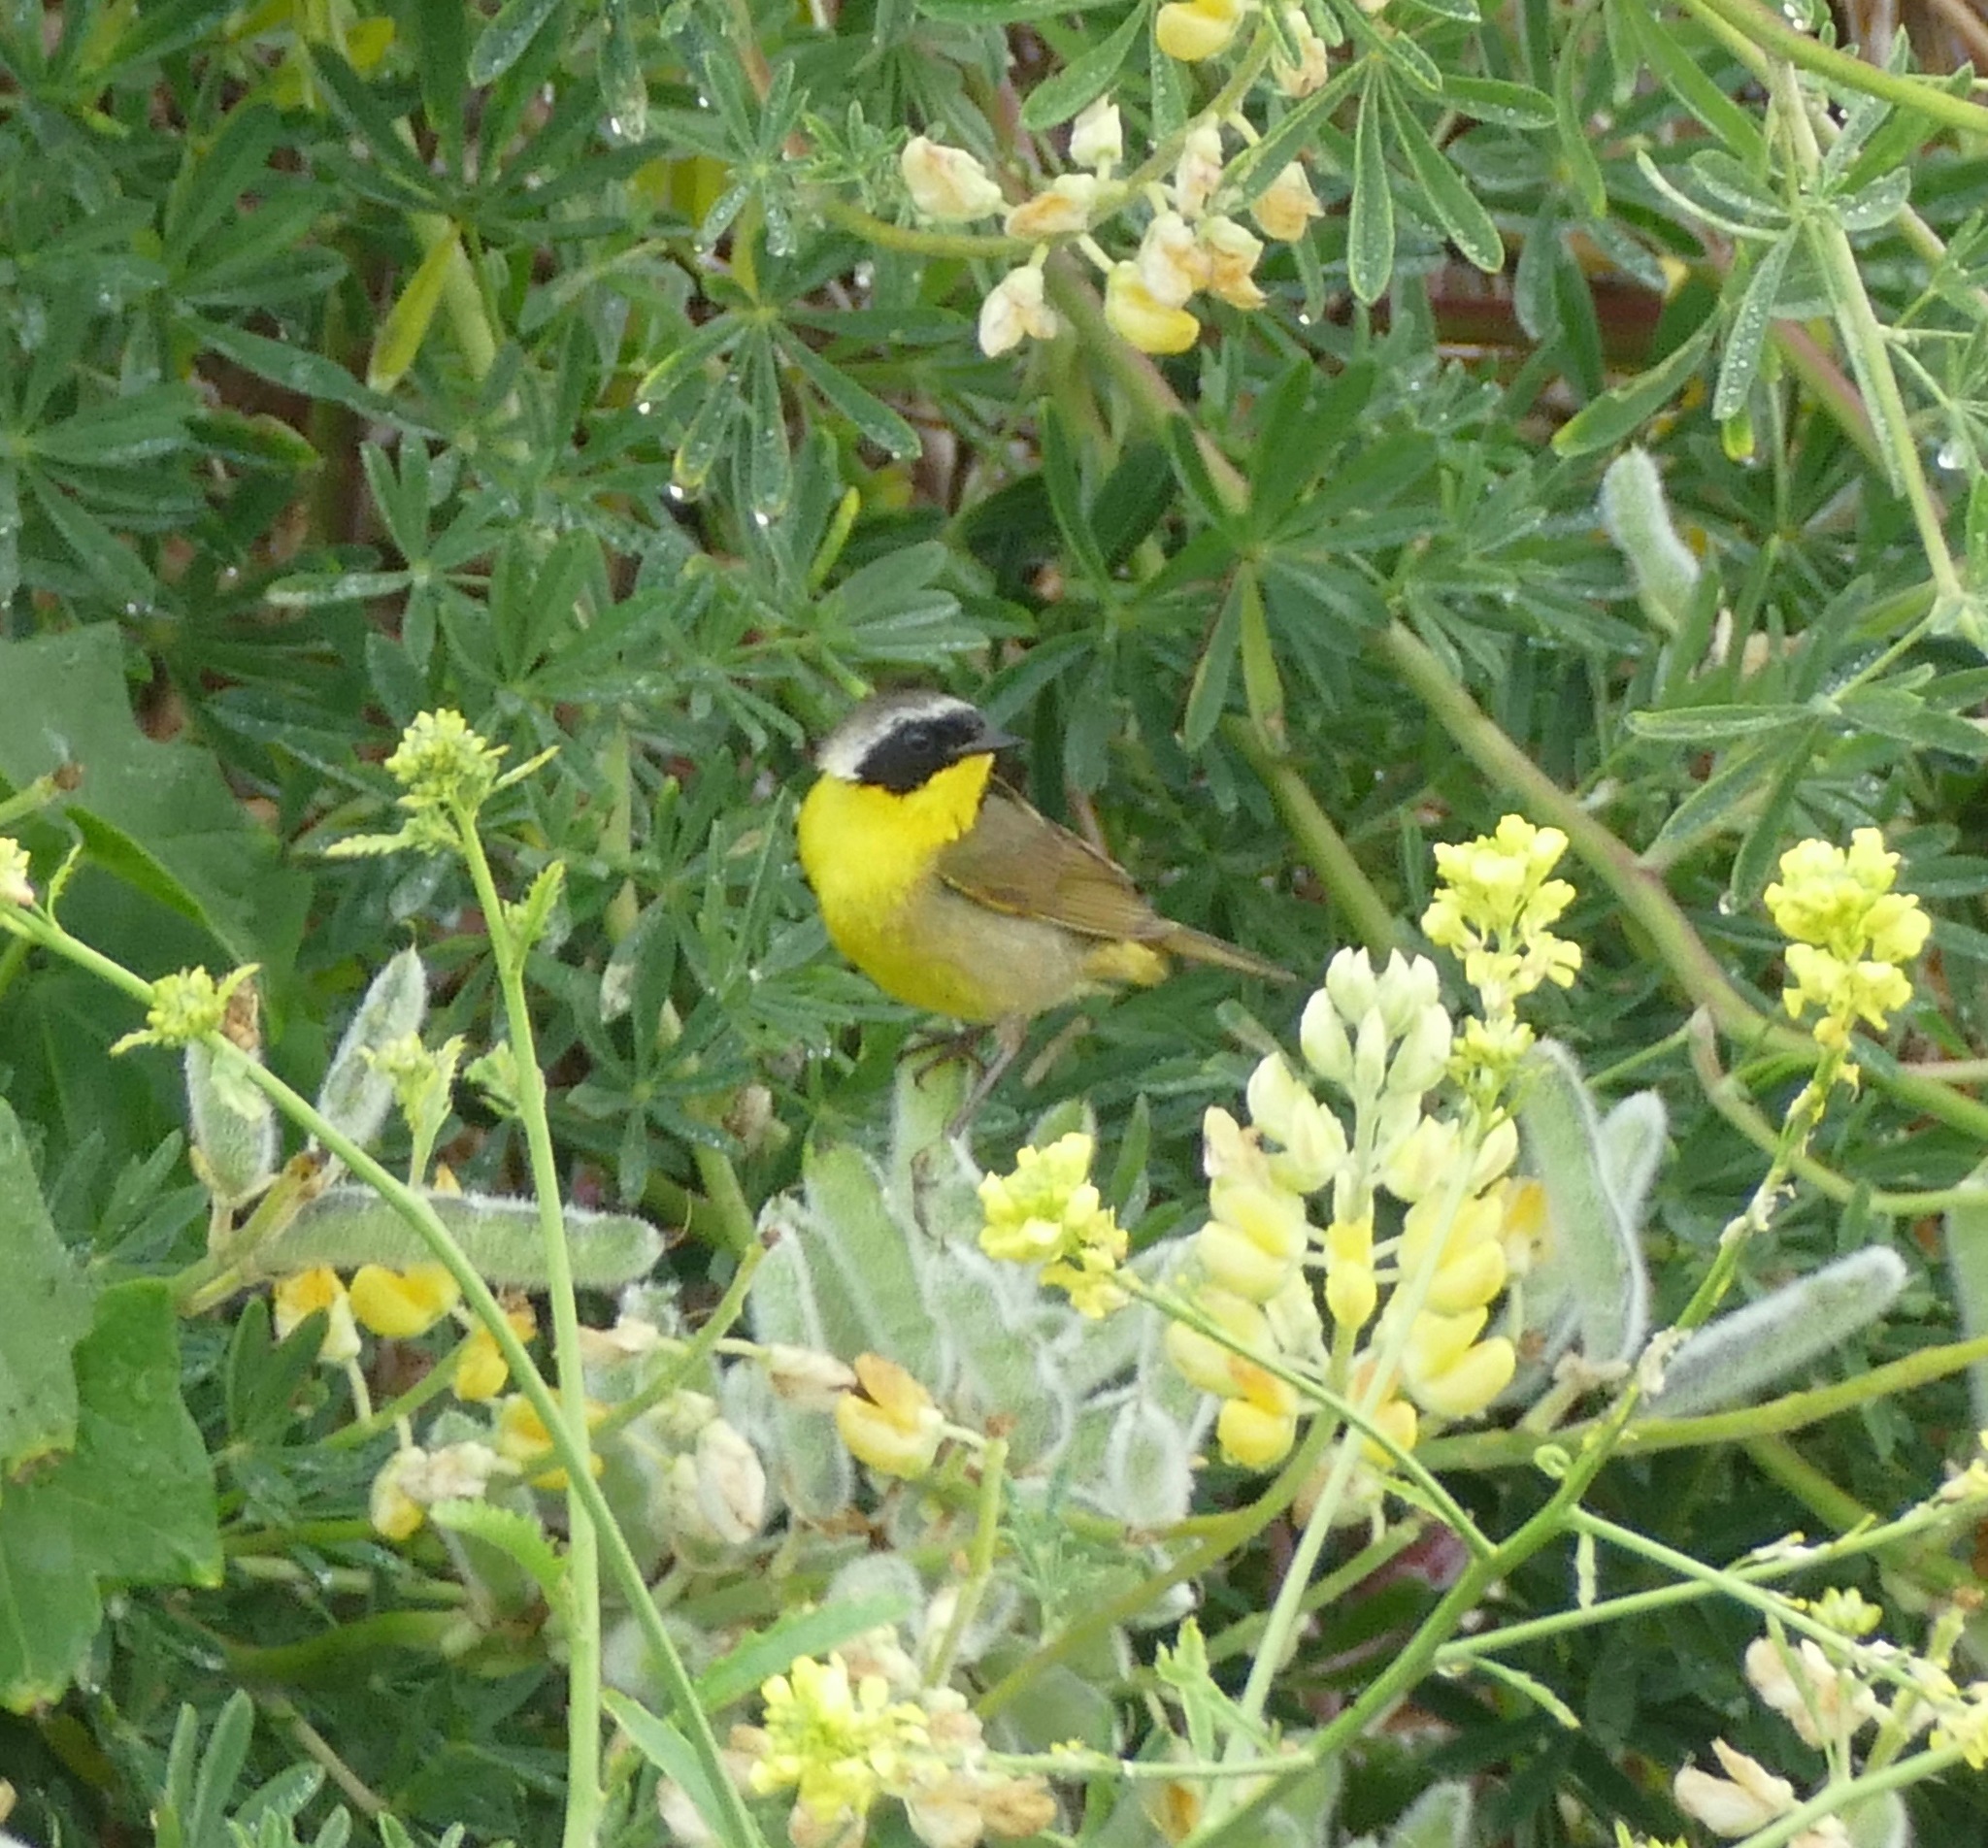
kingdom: Animalia
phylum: Chordata
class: Aves
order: Passeriformes
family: Parulidae
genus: Geothlypis
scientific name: Geothlypis trichas
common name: Common yellowthroat
